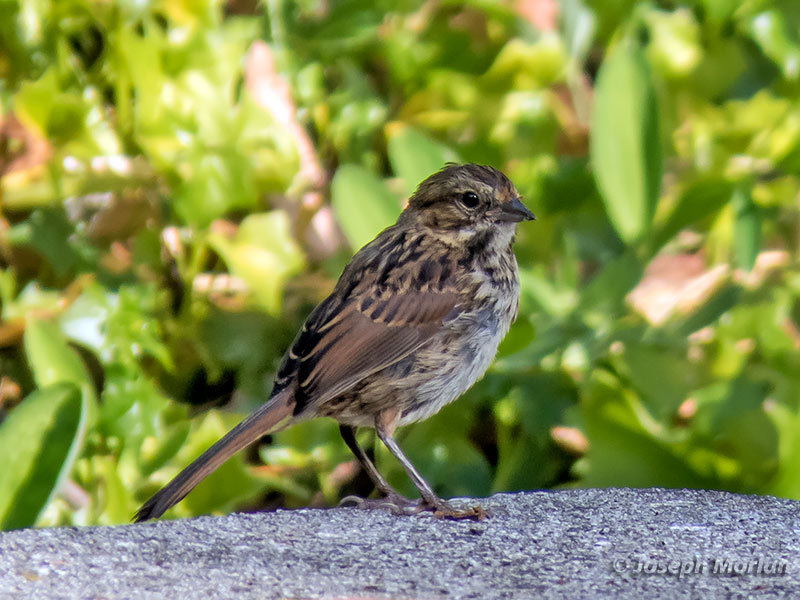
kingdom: Animalia
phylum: Chordata
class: Aves
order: Passeriformes
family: Passerellidae
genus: Melospiza
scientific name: Melospiza melodia
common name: Song sparrow
